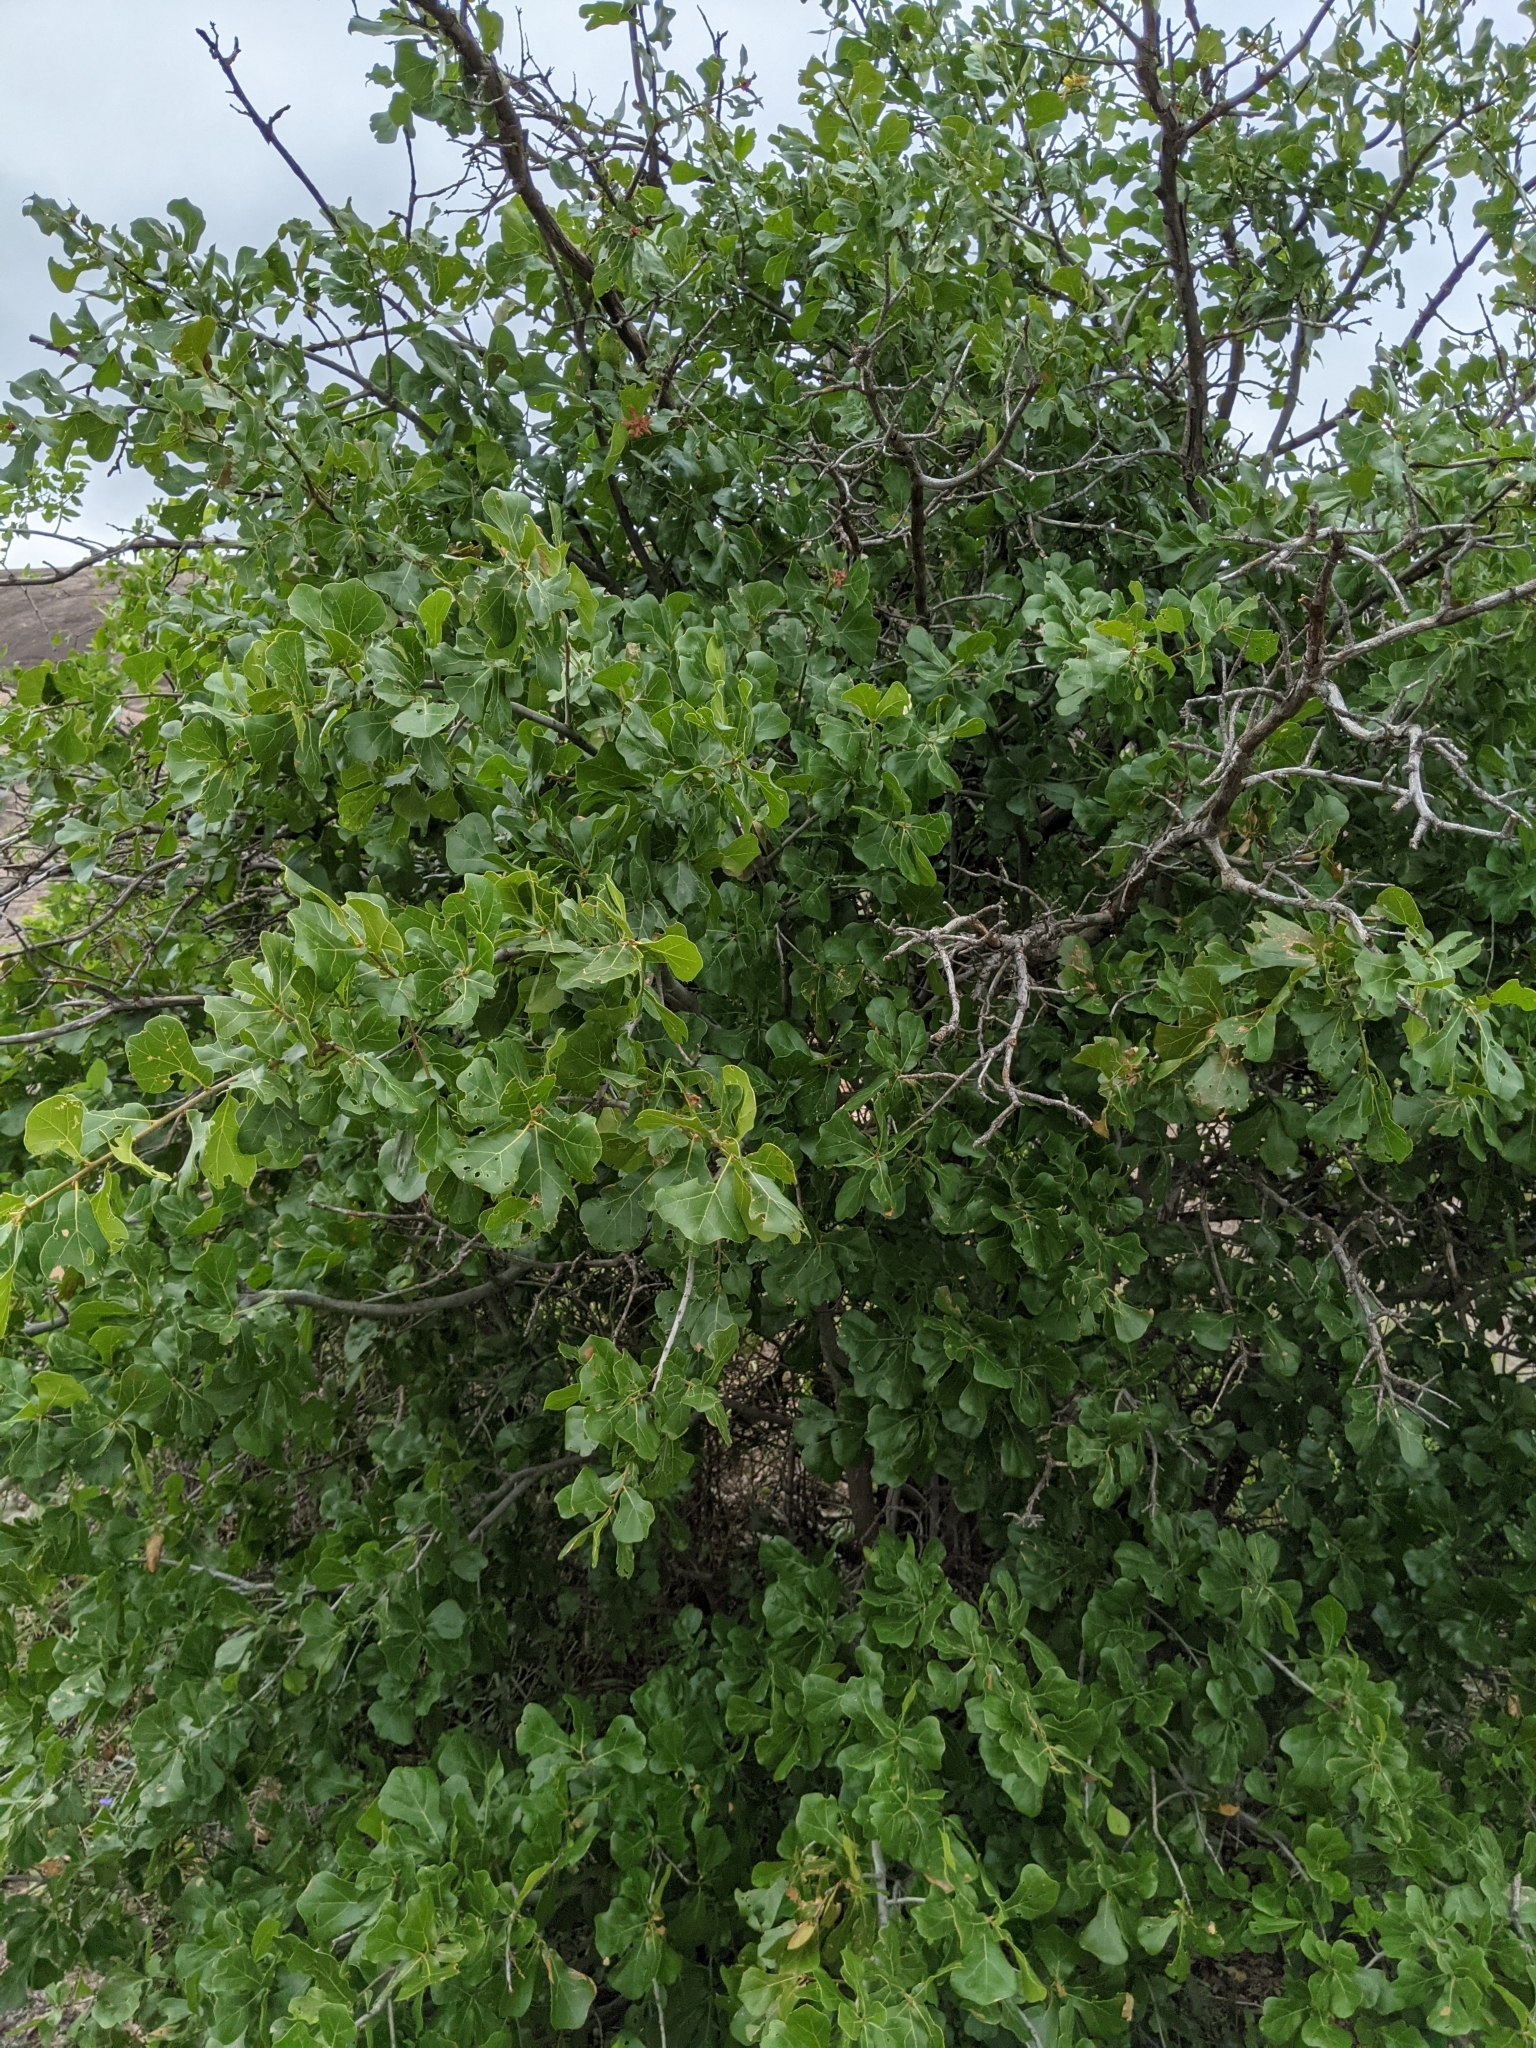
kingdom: Plantae
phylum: Tracheophyta
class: Magnoliopsida
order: Fagales
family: Fagaceae
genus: Quercus
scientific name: Quercus marilandica
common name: Blackjack oak
